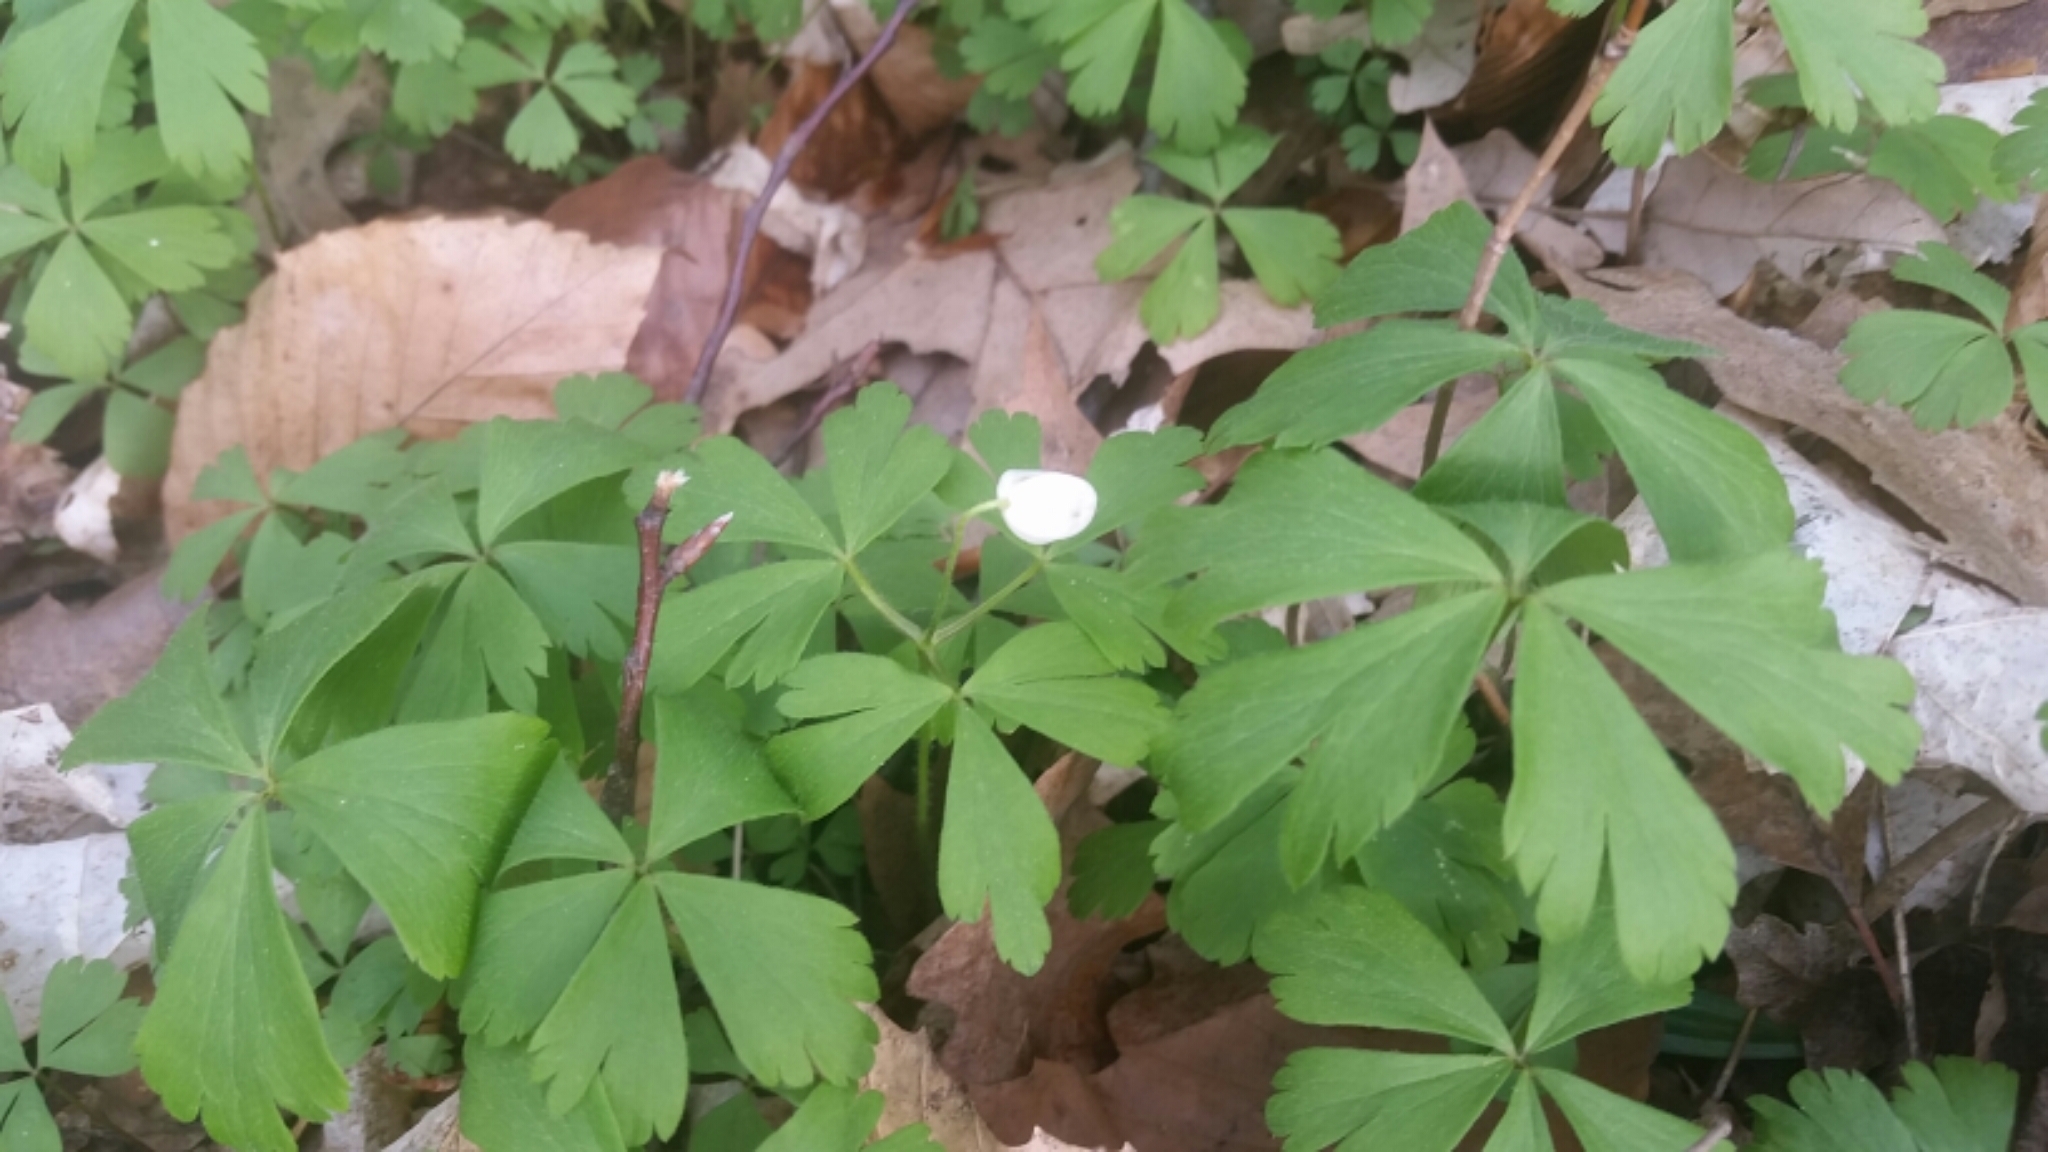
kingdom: Plantae
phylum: Tracheophyta
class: Magnoliopsida
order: Ranunculales
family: Ranunculaceae
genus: Anemone
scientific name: Anemone quinquefolia
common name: Wood anemone
